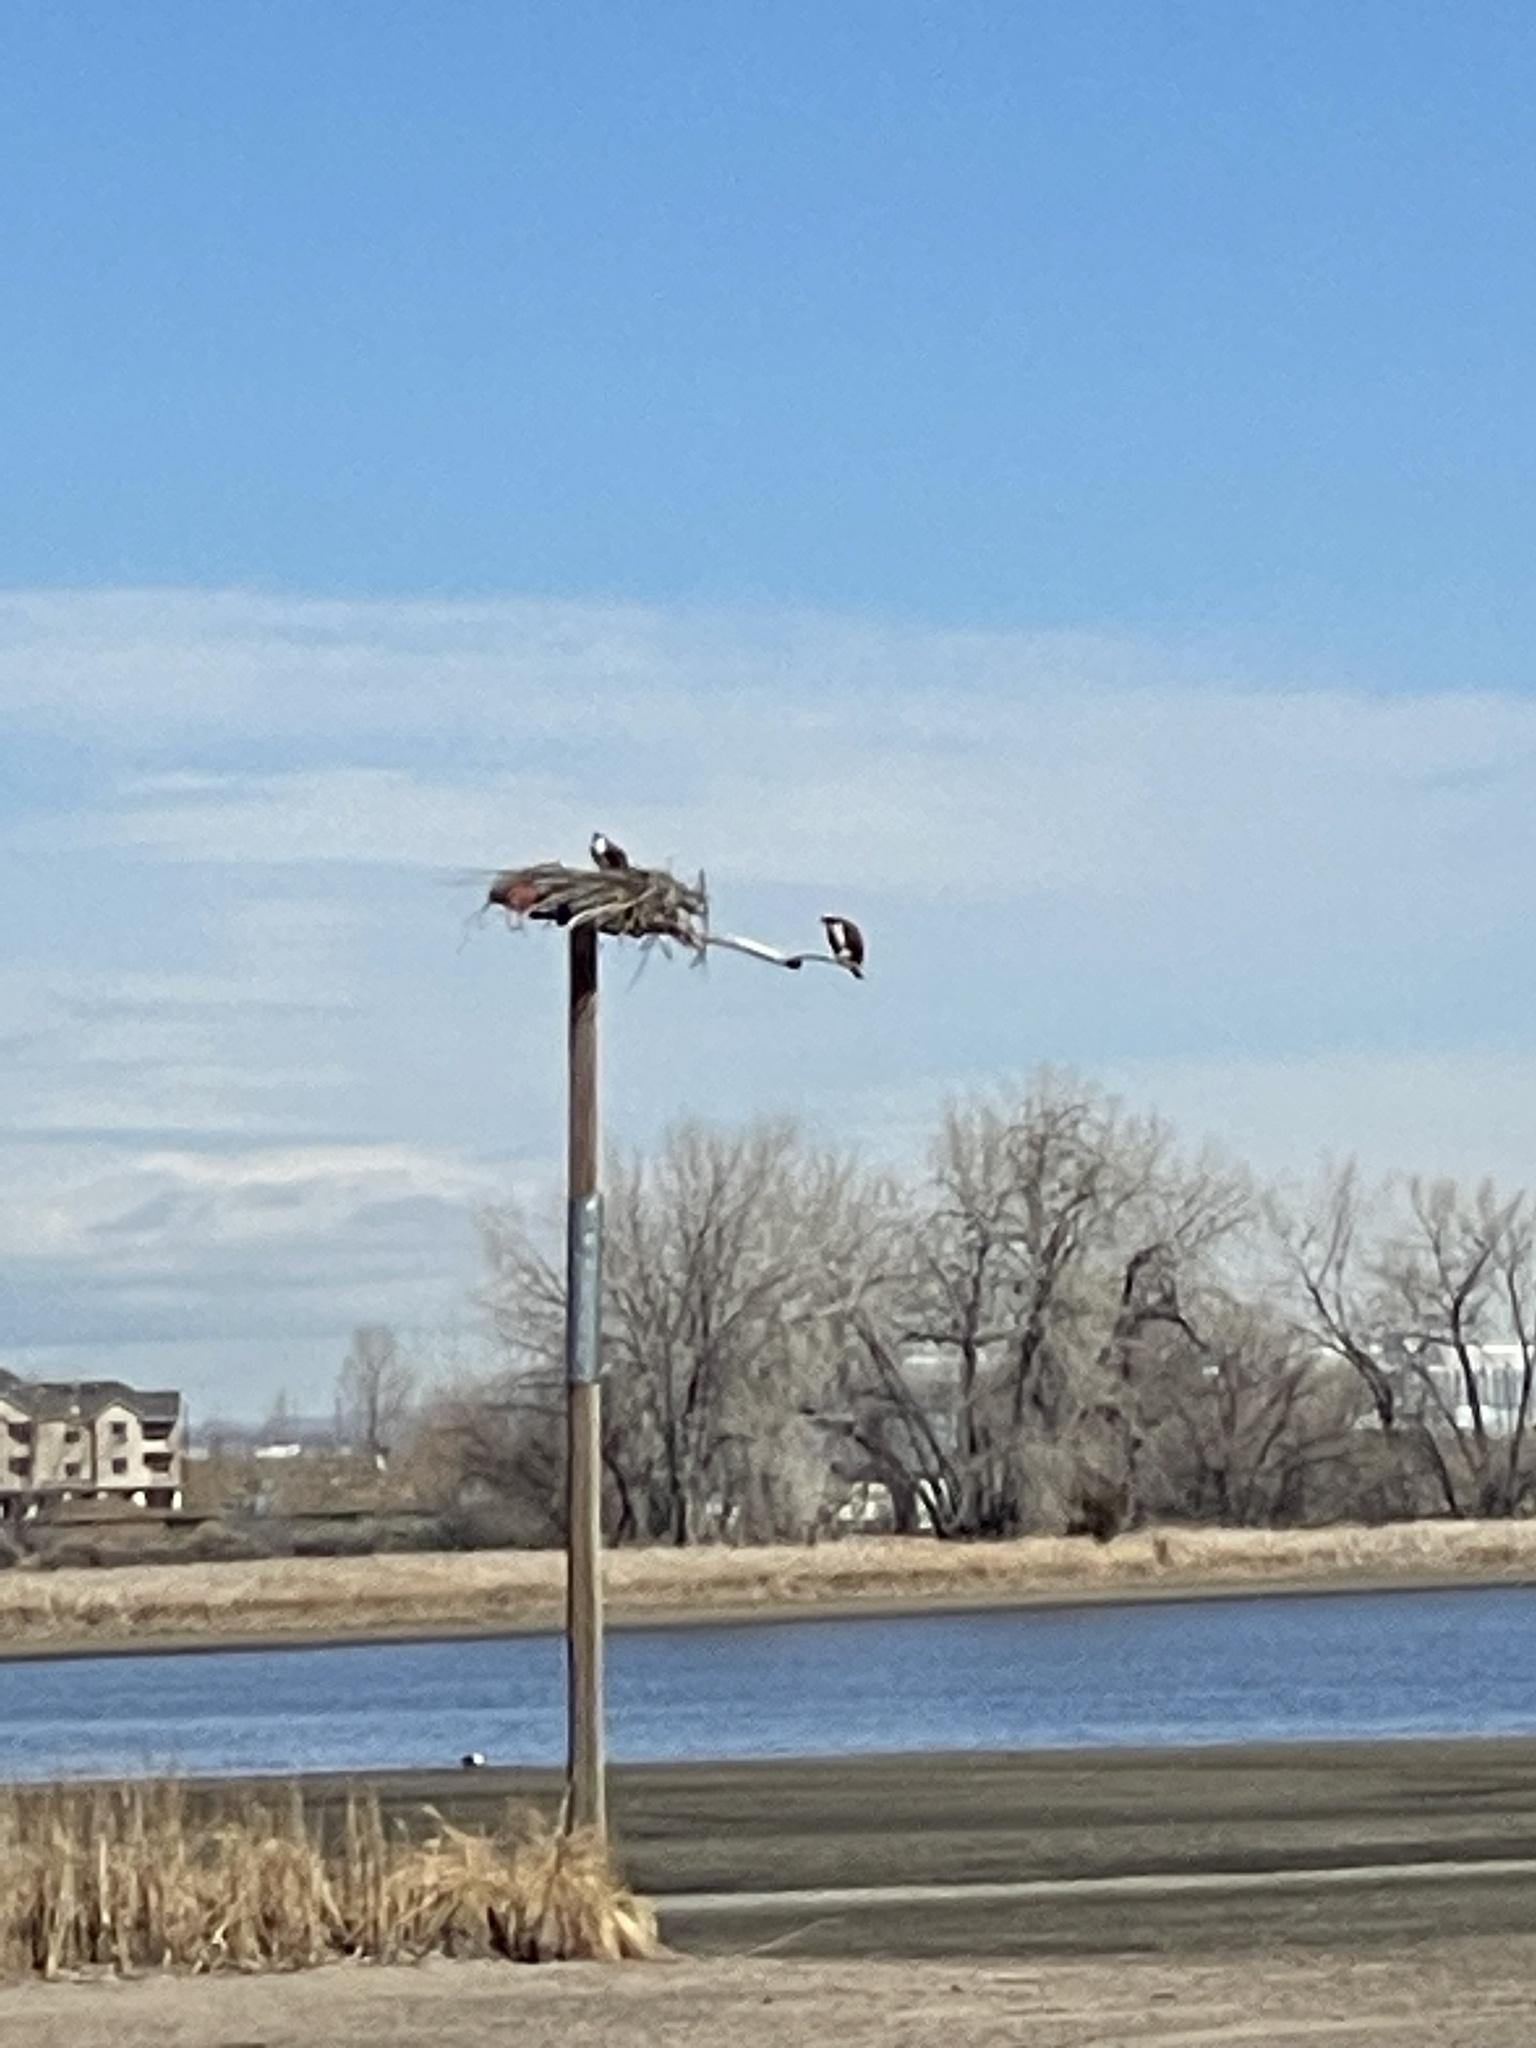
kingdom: Animalia
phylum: Chordata
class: Aves
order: Accipitriformes
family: Pandionidae
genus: Pandion
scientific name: Pandion haliaetus
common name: Osprey
